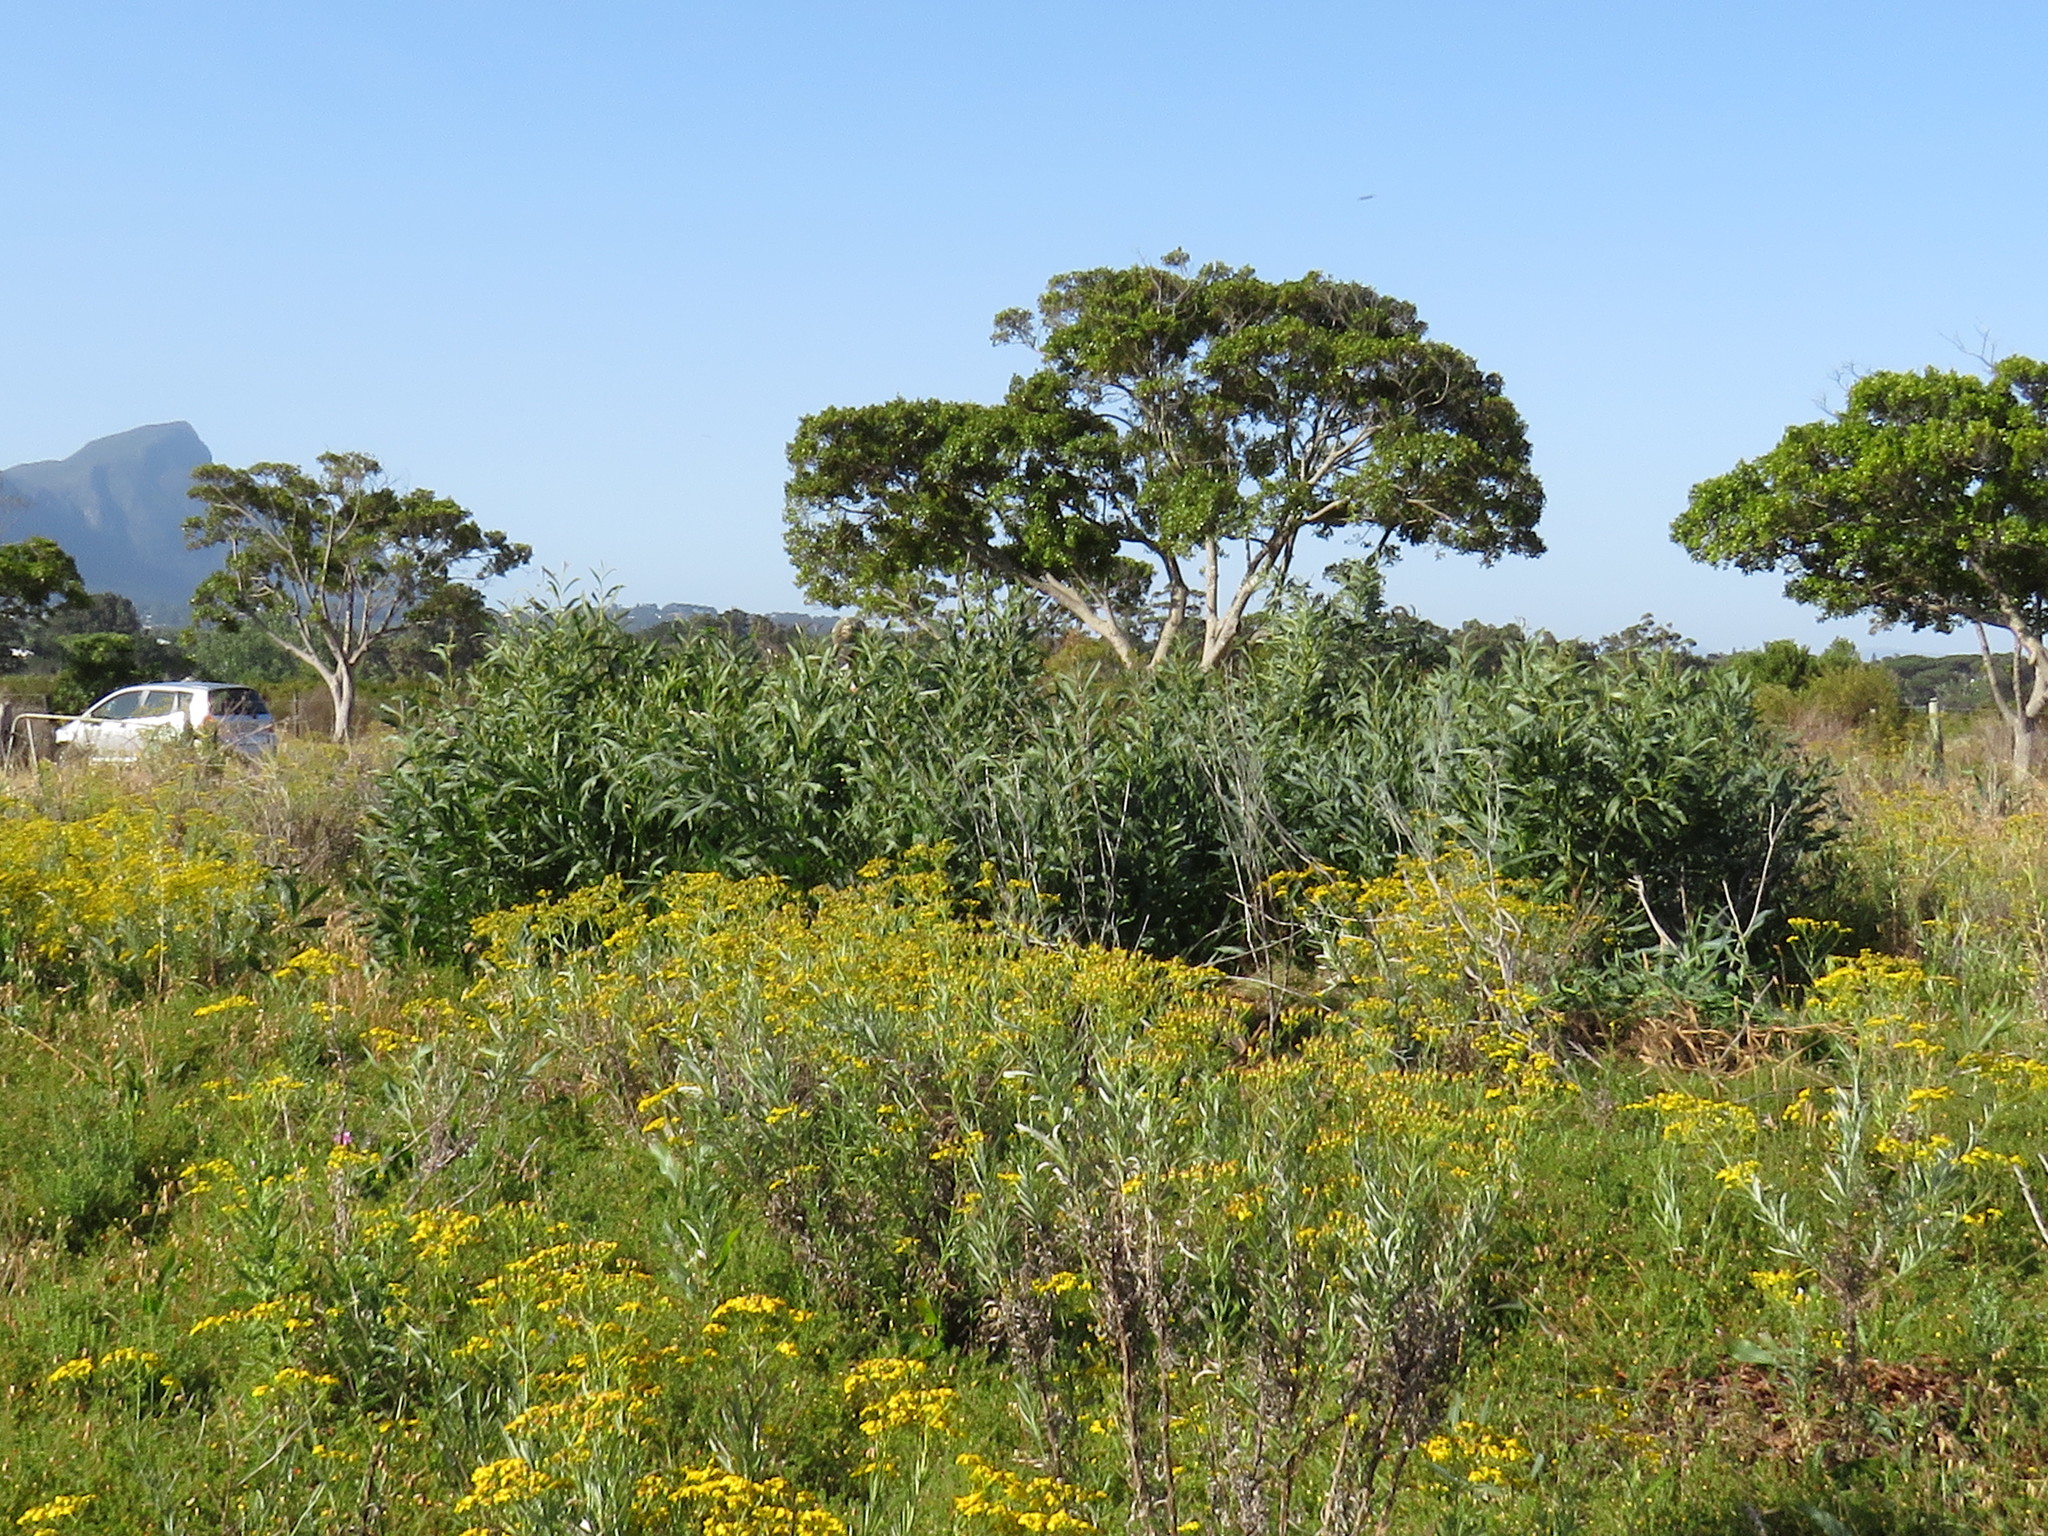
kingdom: Plantae
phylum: Tracheophyta
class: Magnoliopsida
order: Asterales
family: Asteraceae
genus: Senecio
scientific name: Senecio pterophorus
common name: Shoddy ragwort
